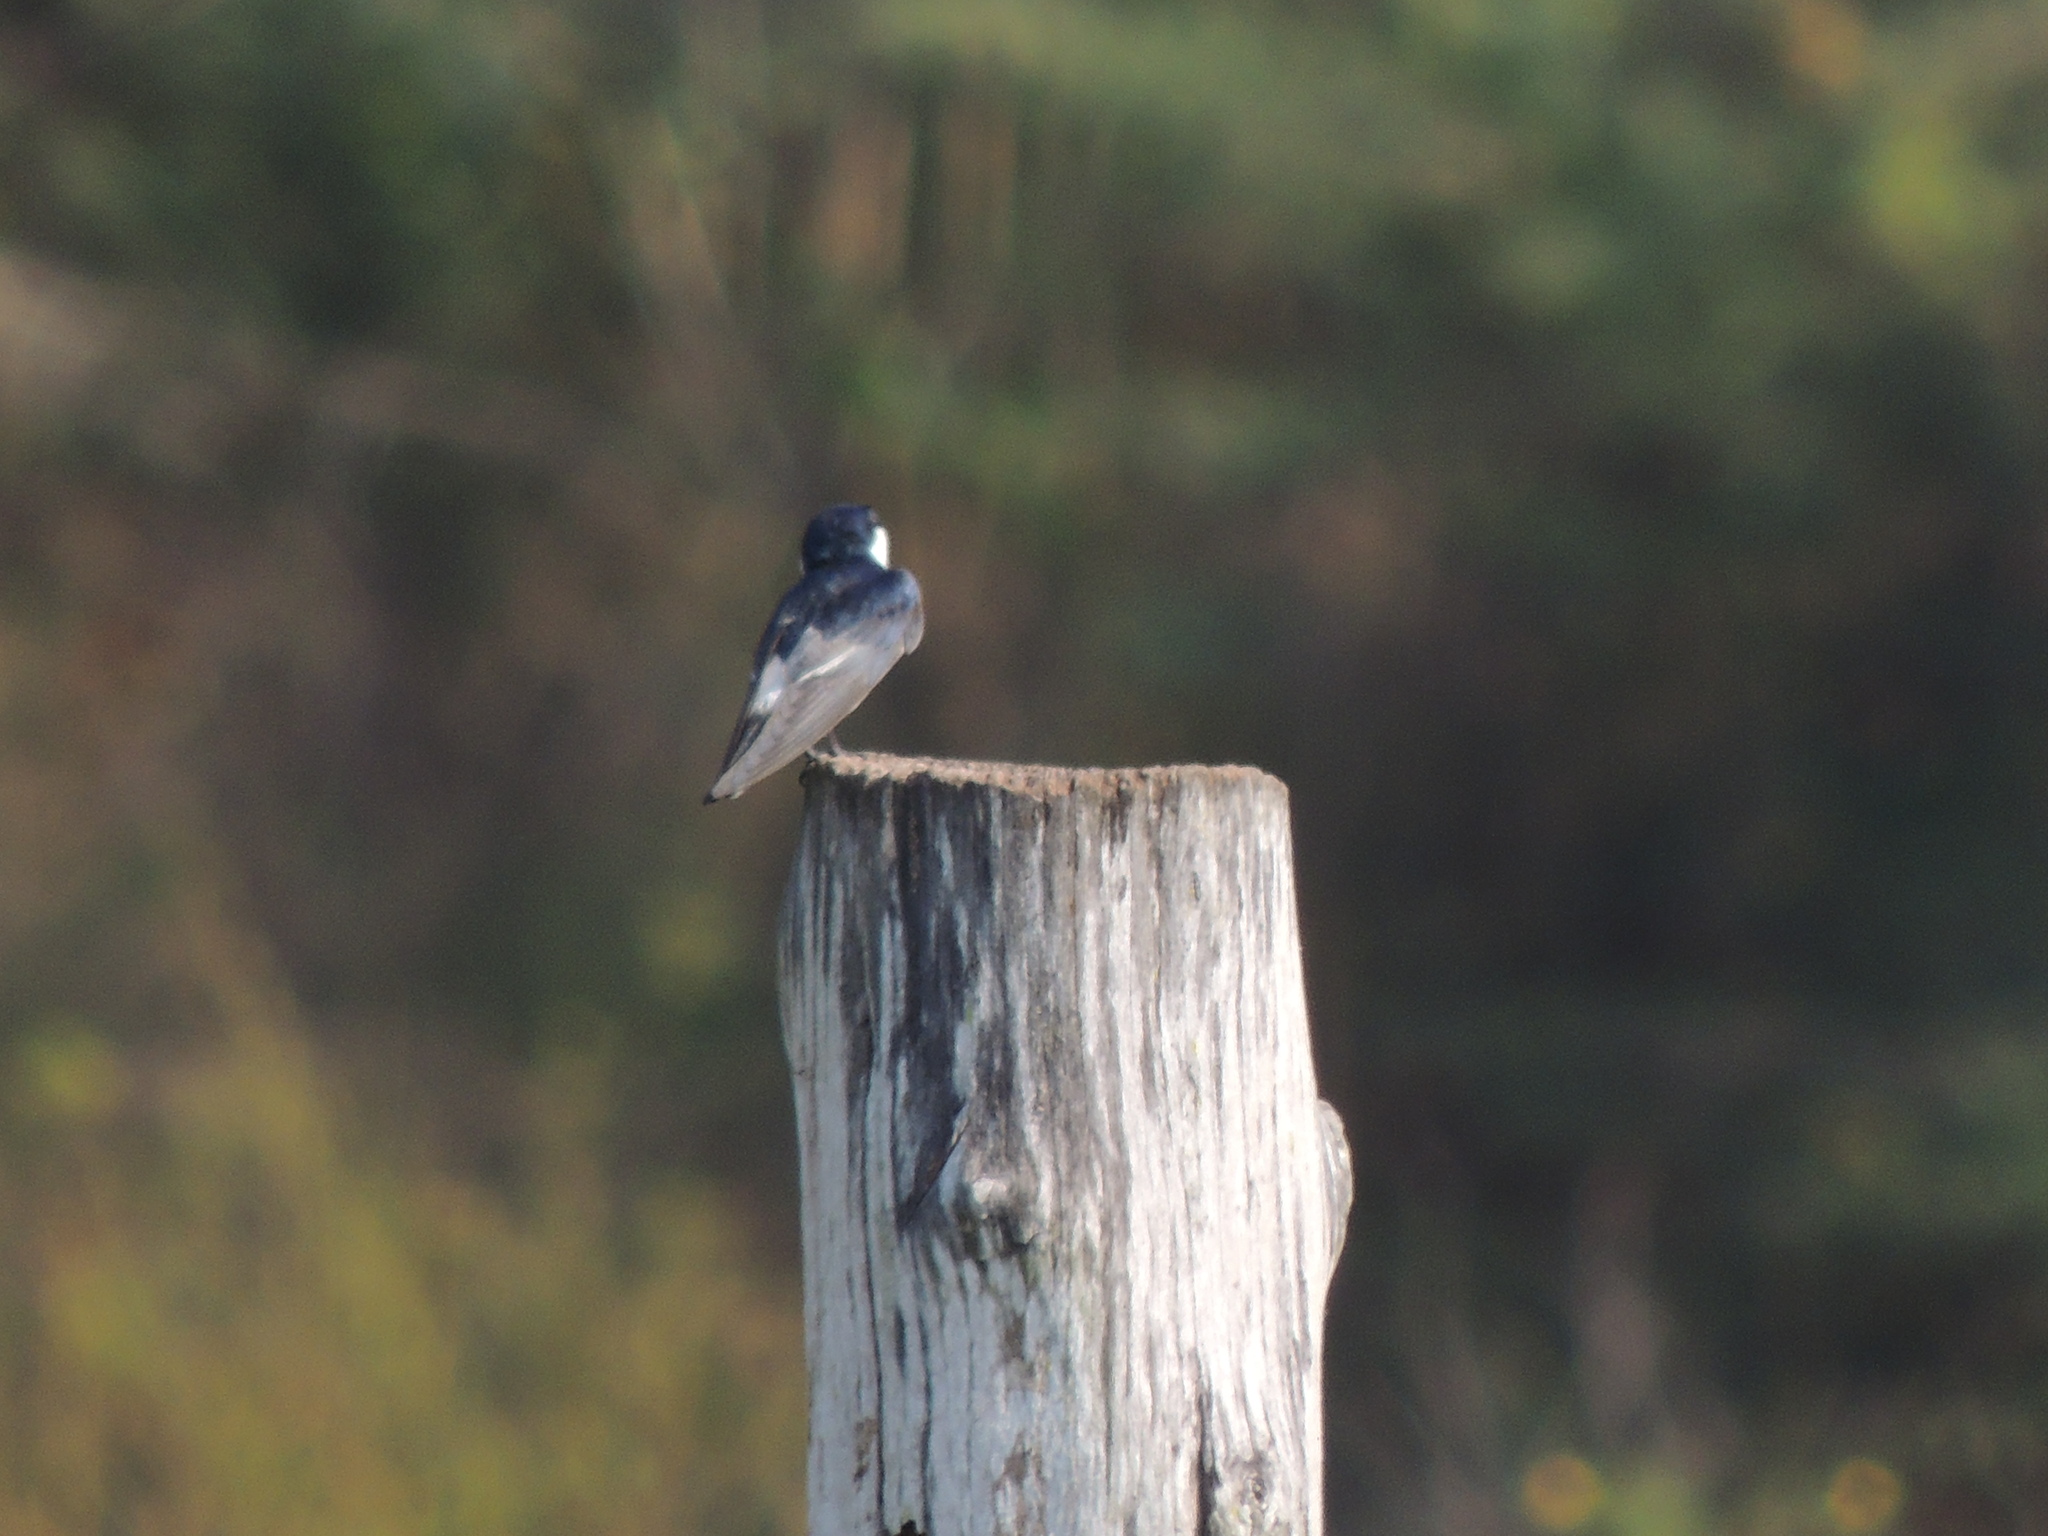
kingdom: Animalia
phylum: Chordata
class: Aves
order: Passeriformes
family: Hirundinidae
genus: Tachycineta
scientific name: Tachycineta albiventer
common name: White-winged swallow
